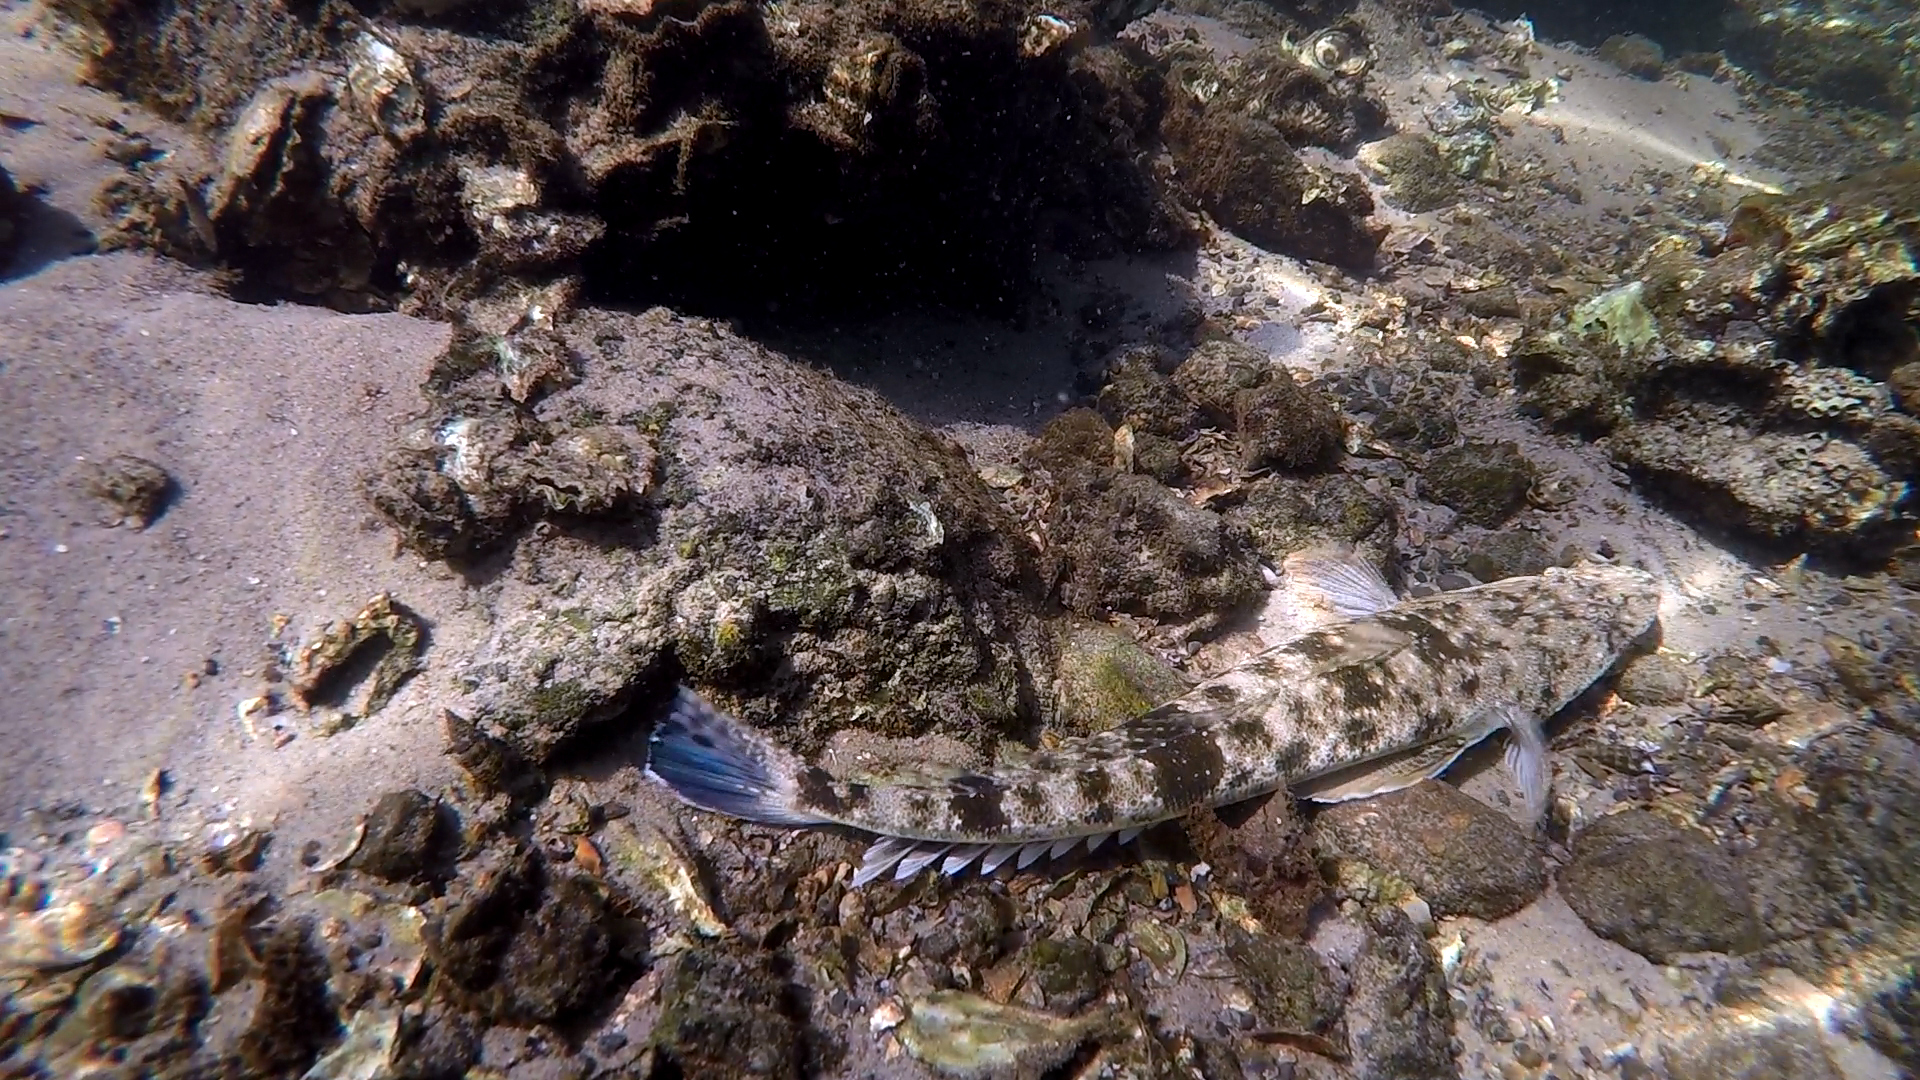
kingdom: Animalia
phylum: Chordata
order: Scorpaeniformes
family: Platycephalidae
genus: Platycephalus
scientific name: Platycephalus fuscus
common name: Dusky flathead
